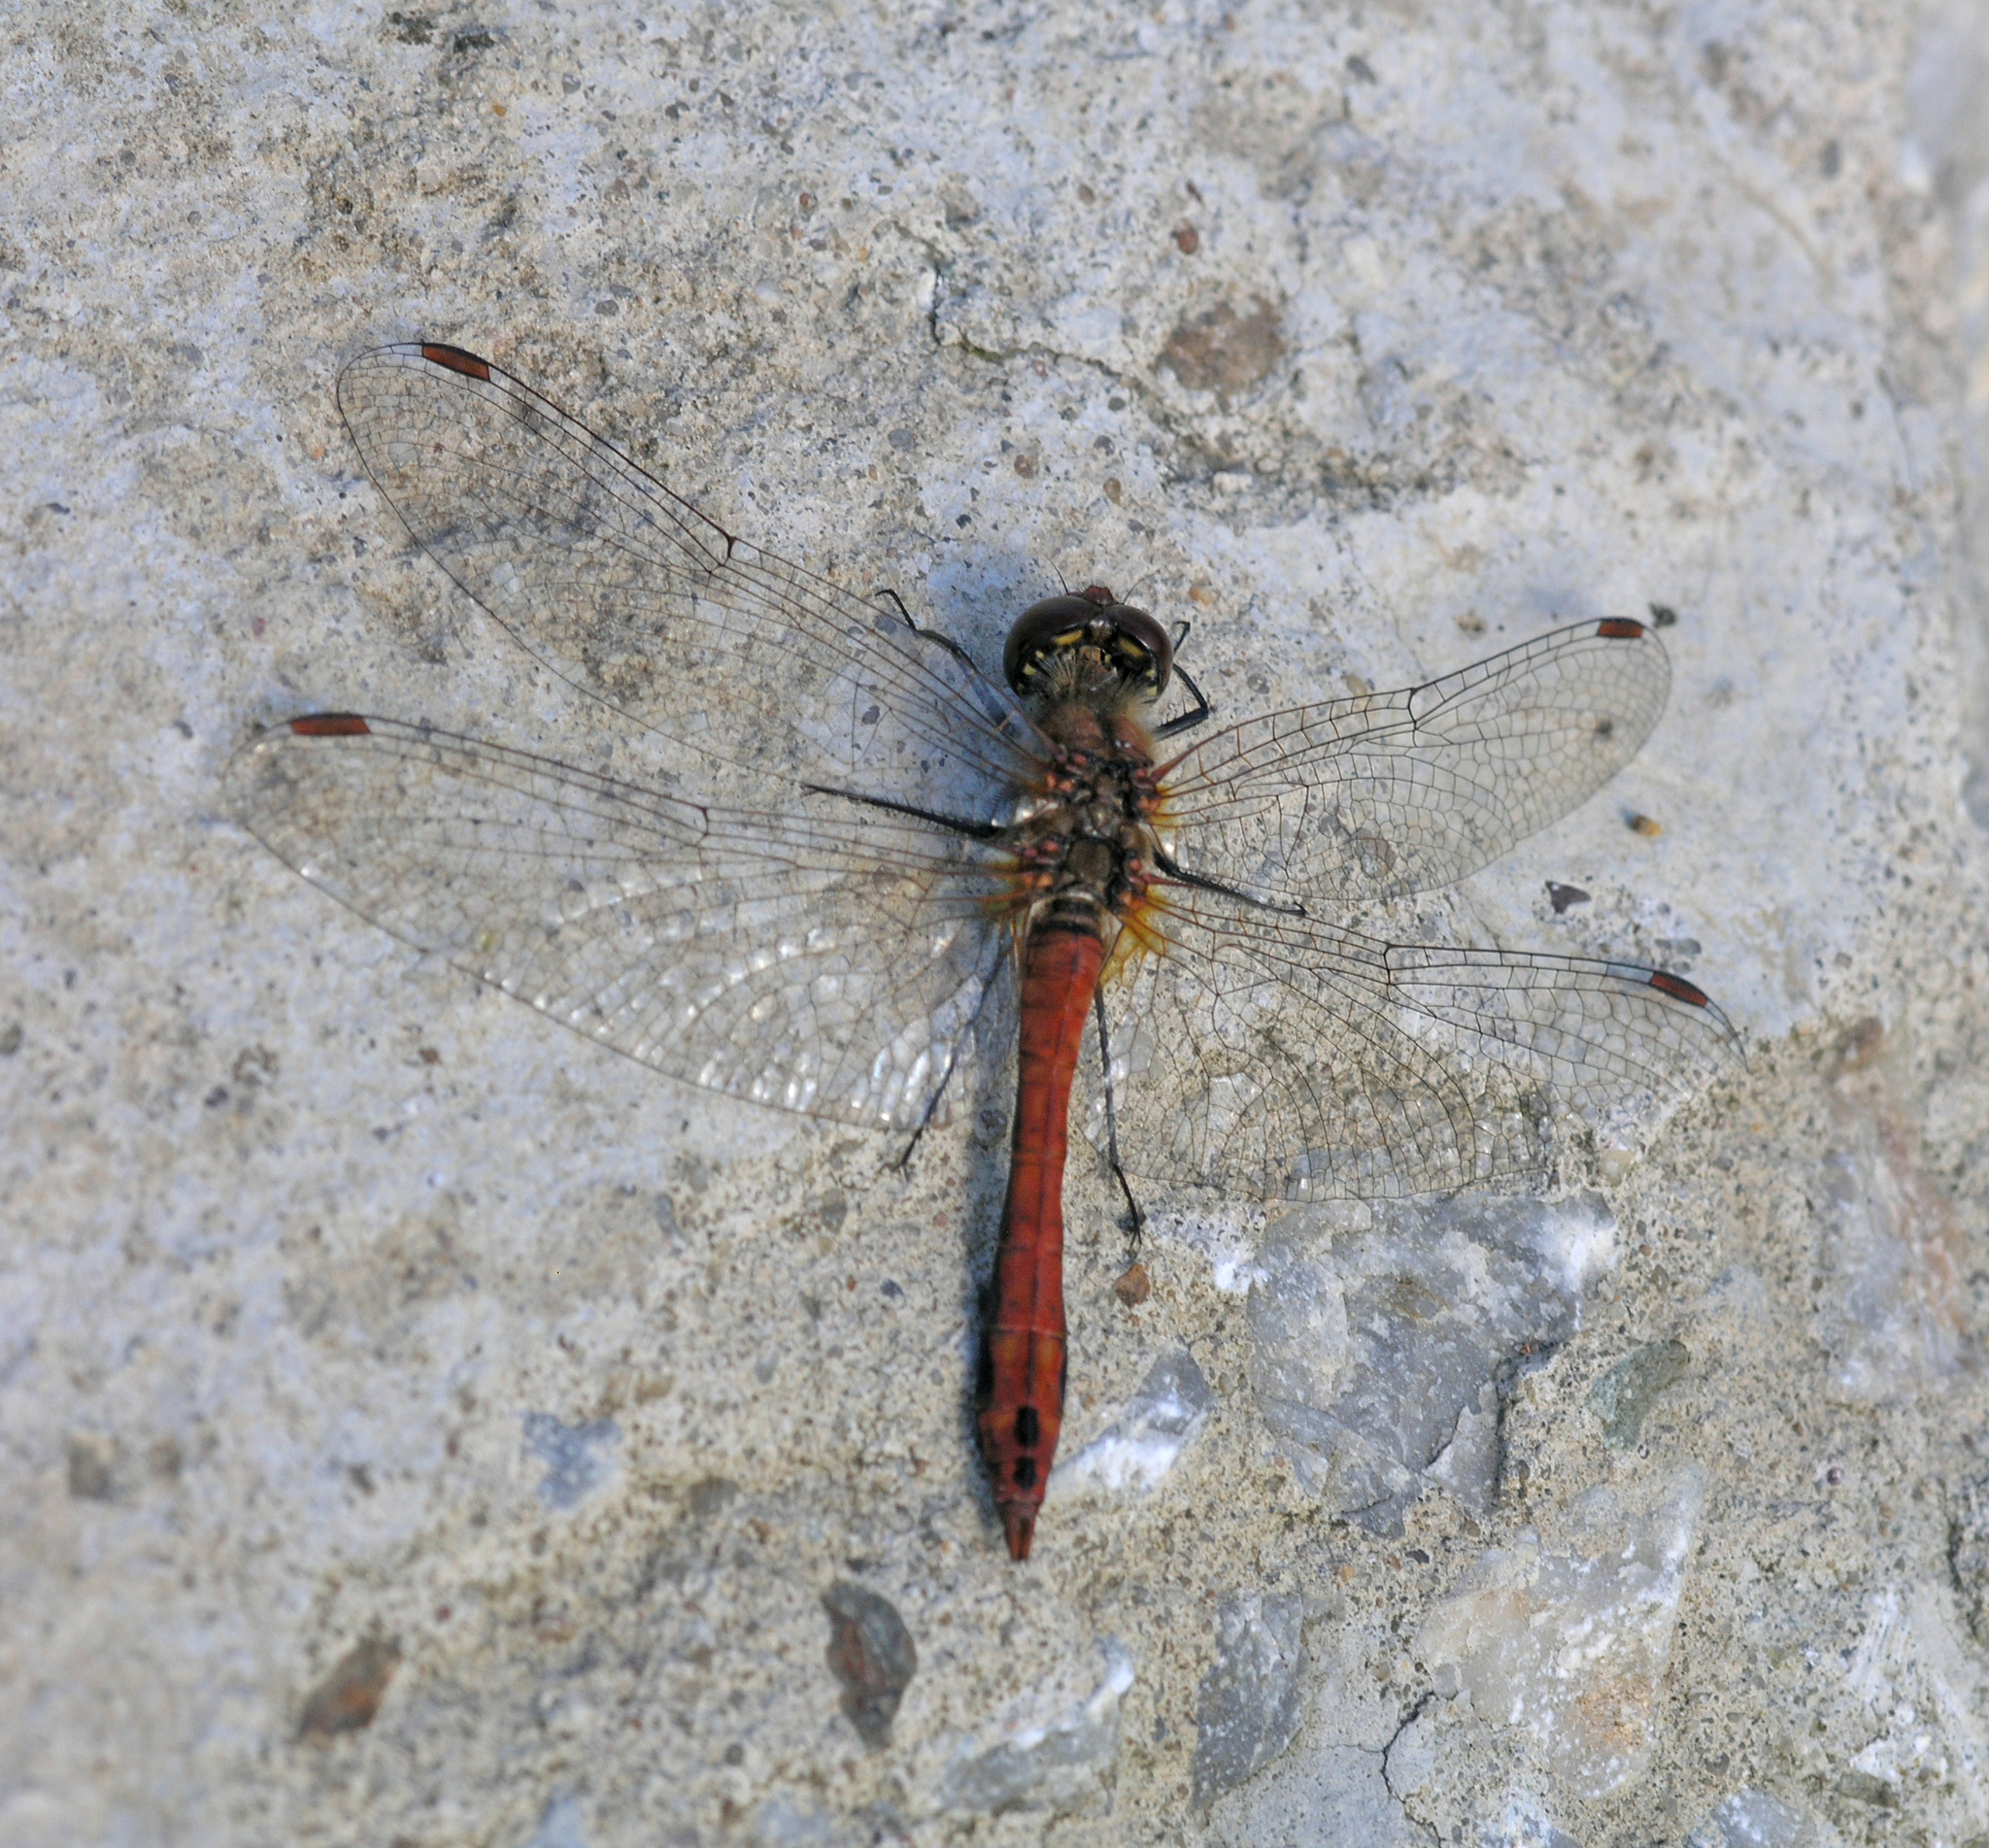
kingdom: Animalia
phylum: Arthropoda
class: Insecta
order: Odonata
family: Libellulidae
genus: Sympetrum
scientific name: Sympetrum sanguineum
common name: Ruddy darter
